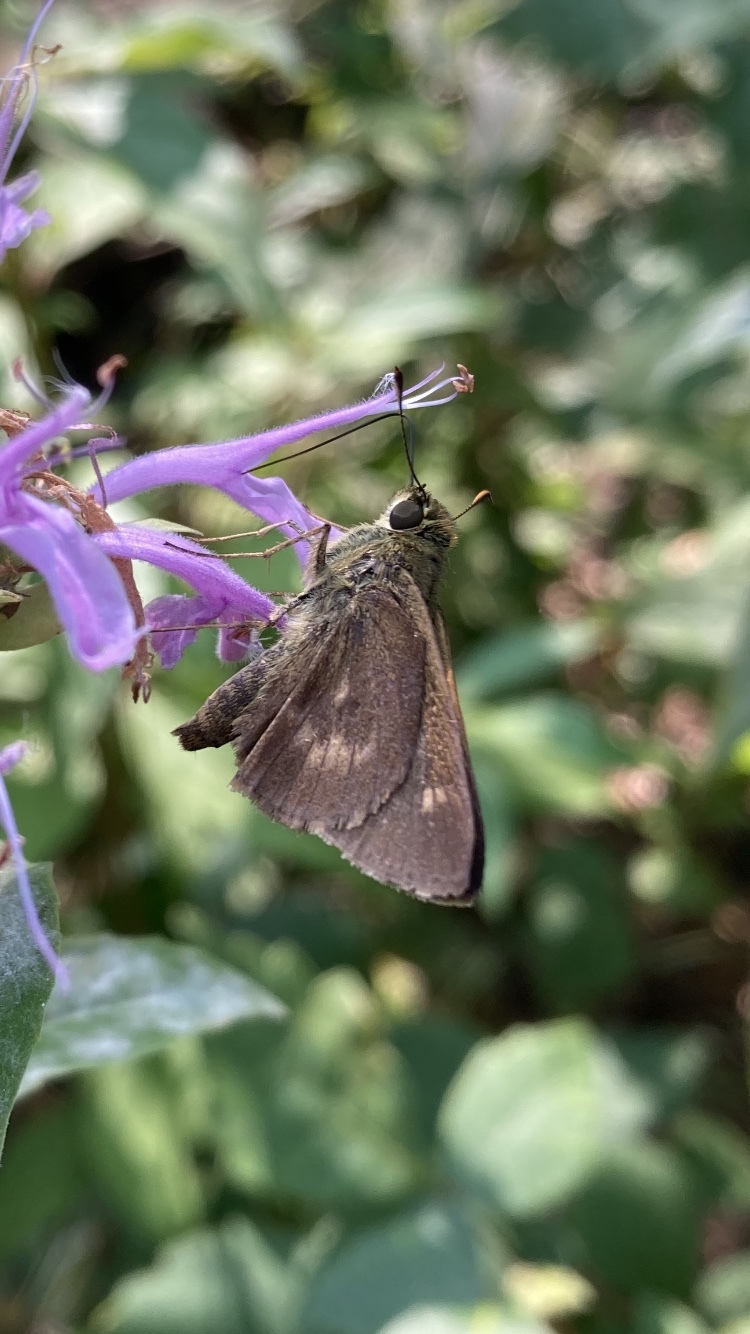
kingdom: Animalia
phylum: Arthropoda
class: Insecta
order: Lepidoptera
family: Hesperiidae
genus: Polites
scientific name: Polites egeremet
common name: Northern broken-dash
